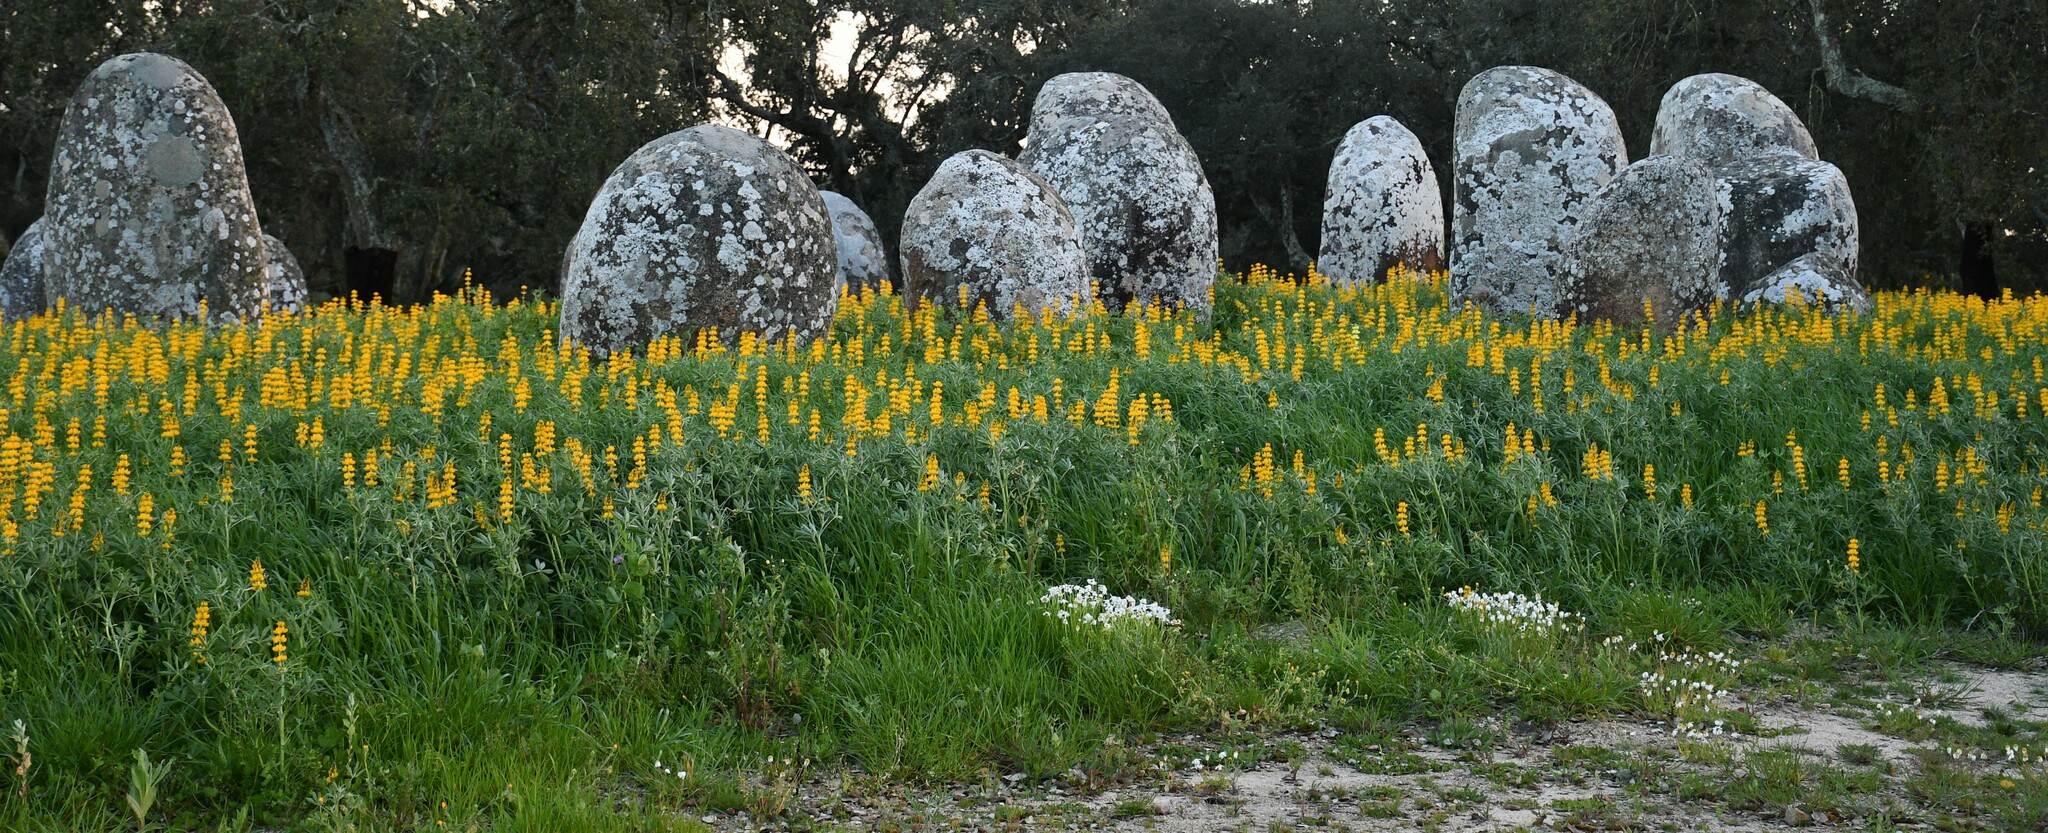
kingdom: Plantae
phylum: Tracheophyta
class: Magnoliopsida
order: Fabales
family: Fabaceae
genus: Lupinus
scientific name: Lupinus luteus
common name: European yellow lupine
